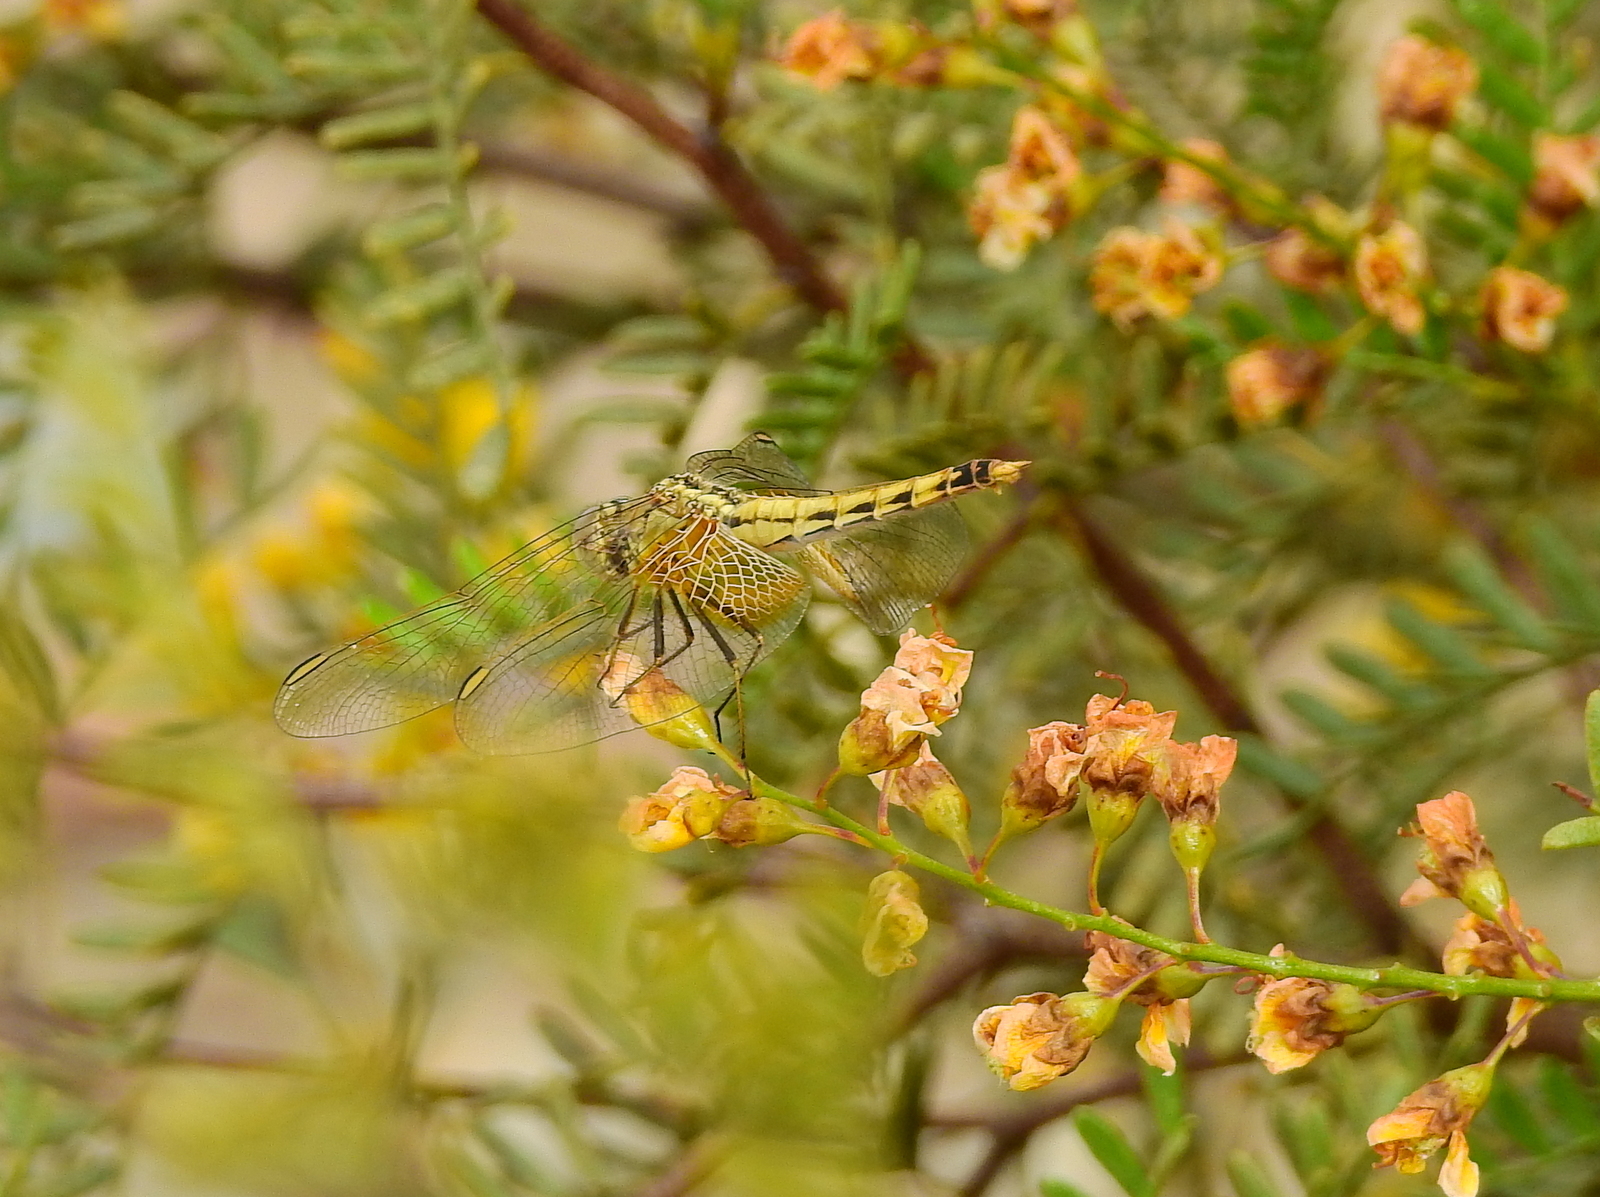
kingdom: Animalia
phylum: Arthropoda
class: Insecta
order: Odonata
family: Libellulidae
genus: Erythrodiplax
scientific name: Erythrodiplax corallina
